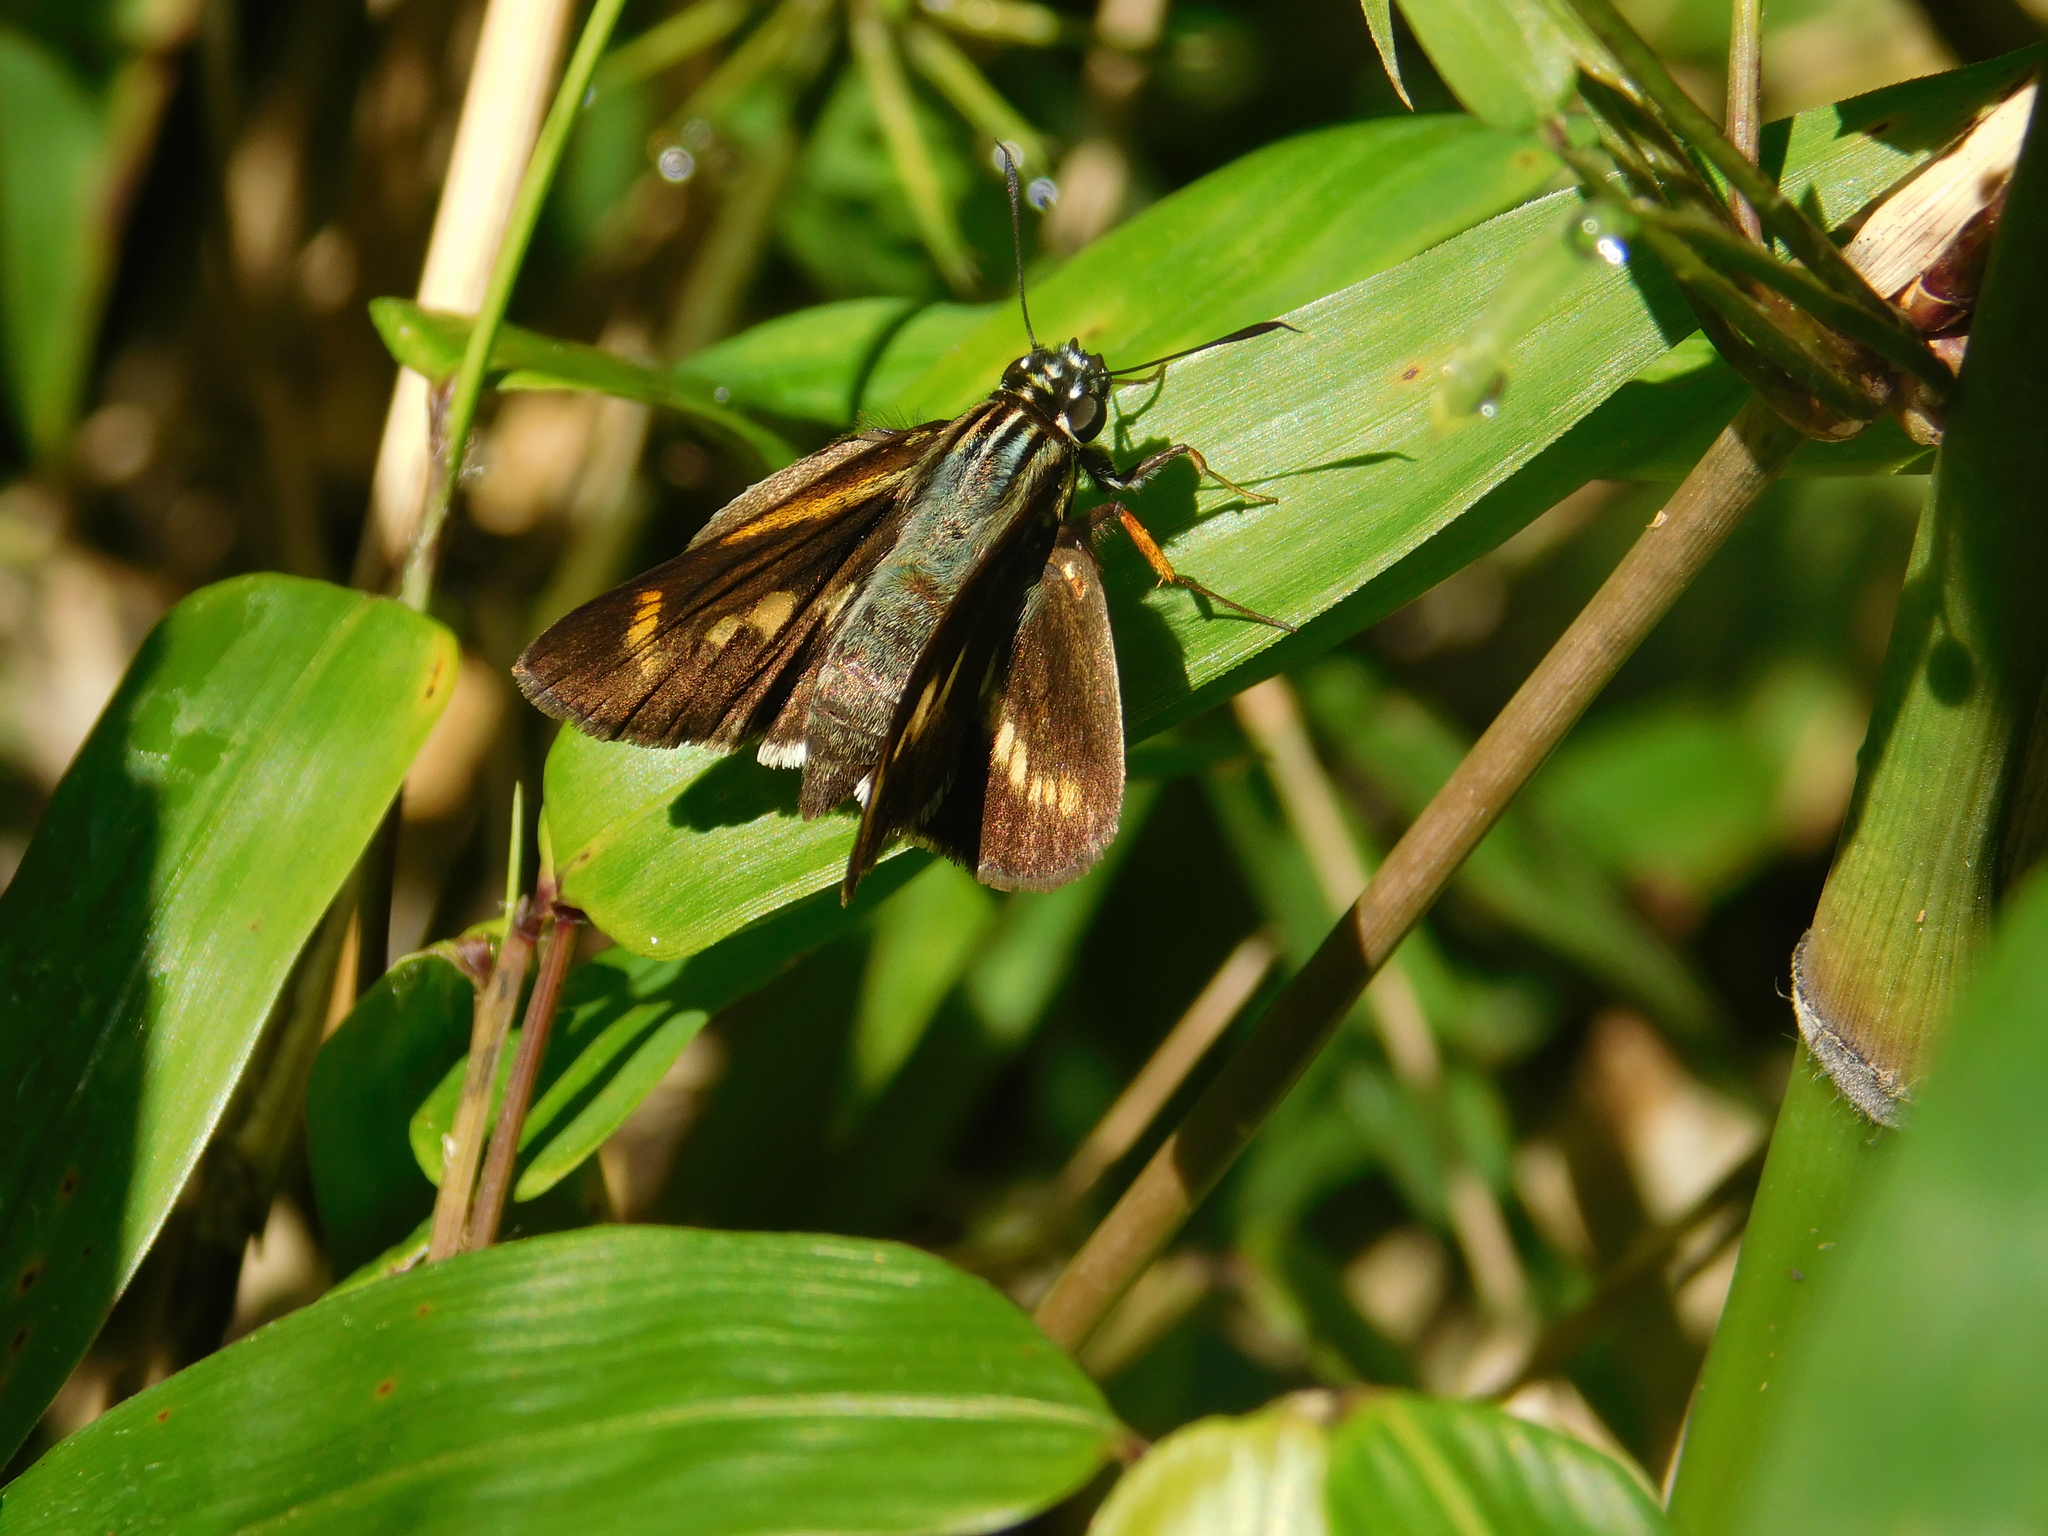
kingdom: Animalia
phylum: Arthropoda
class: Insecta
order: Lepidoptera
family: Hesperiidae
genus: Propertius
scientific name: Propertius propertius
